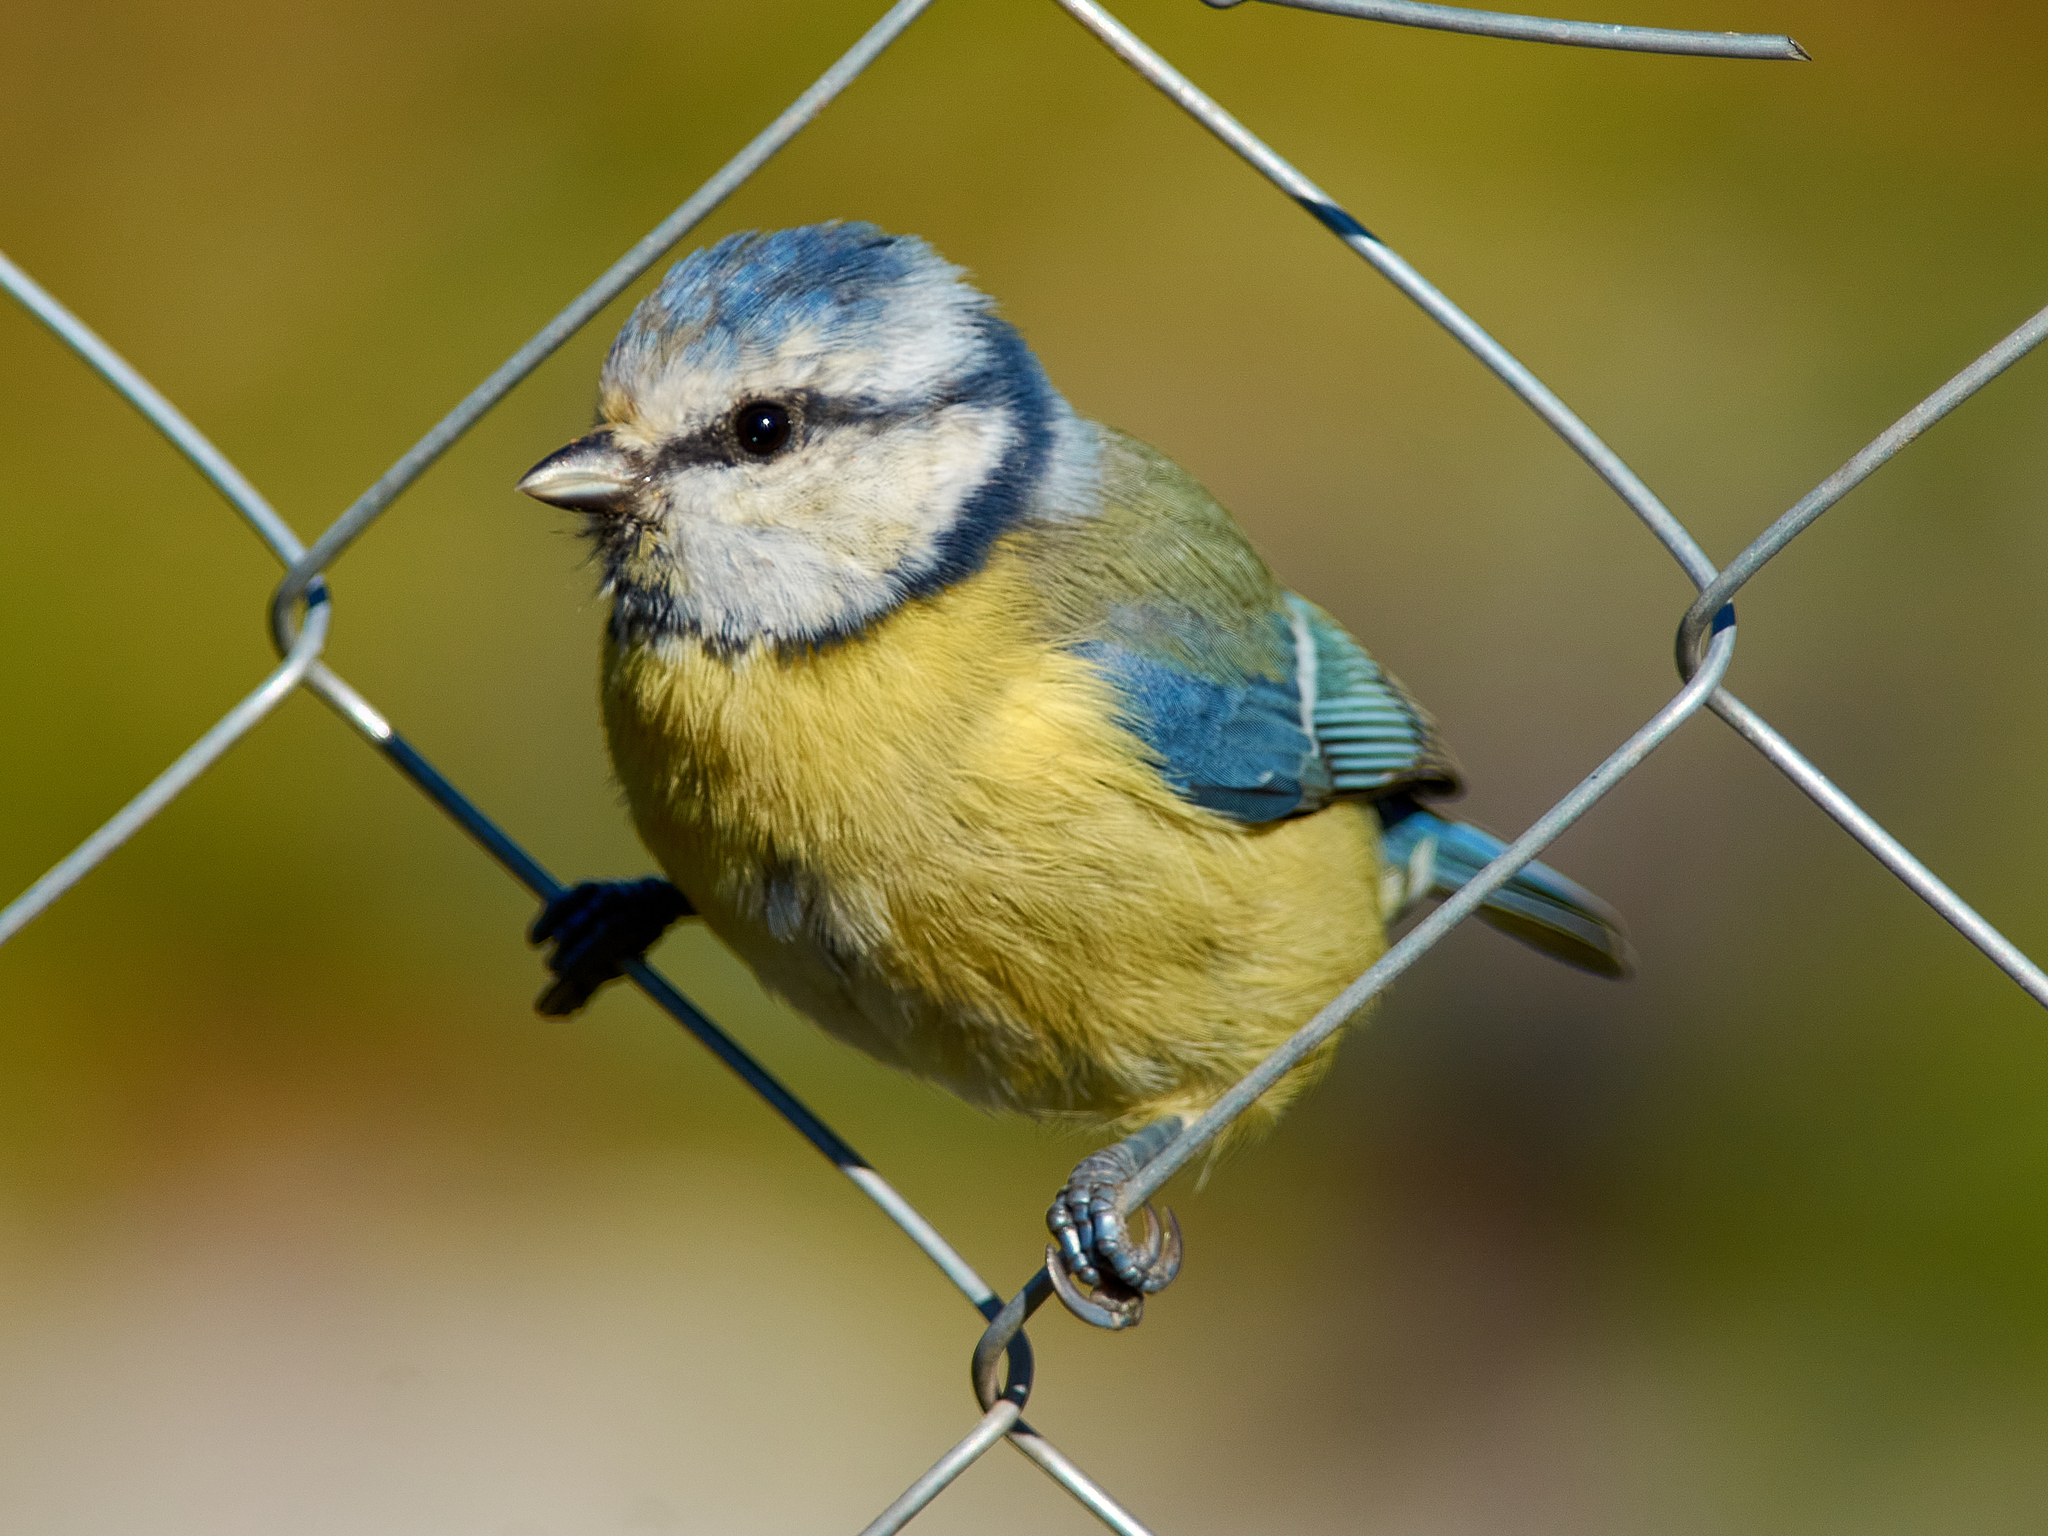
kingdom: Animalia
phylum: Chordata
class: Aves
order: Passeriformes
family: Paridae
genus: Cyanistes
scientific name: Cyanistes caeruleus
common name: Eurasian blue tit
